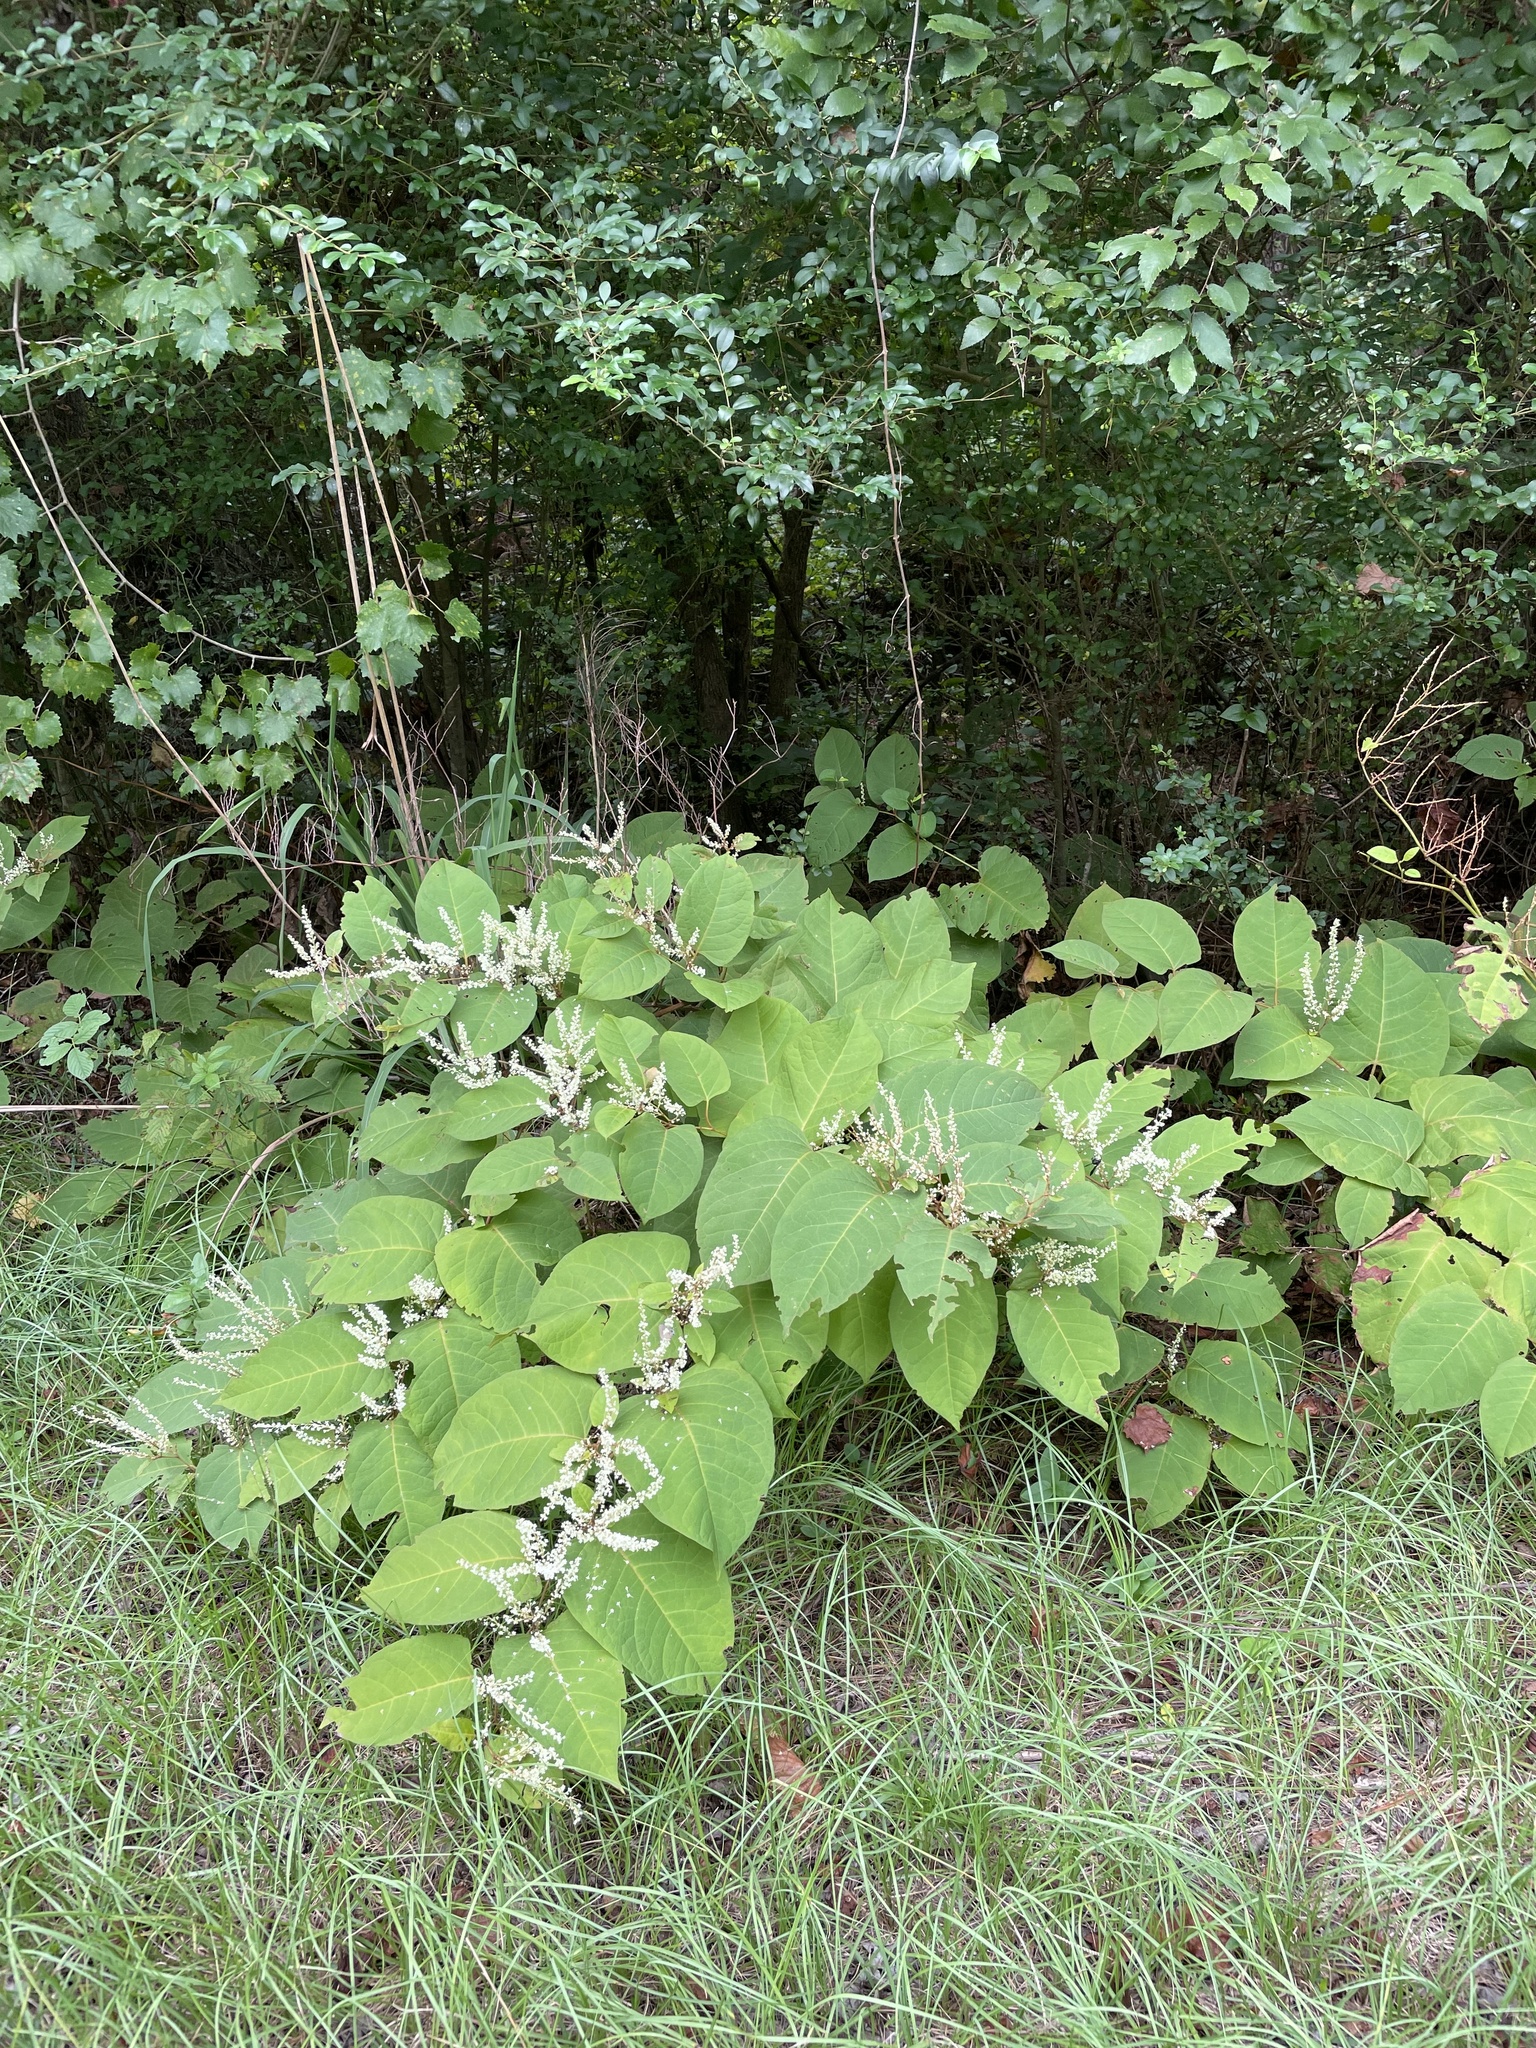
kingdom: Plantae
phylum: Tracheophyta
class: Magnoliopsida
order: Caryophyllales
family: Polygonaceae
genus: Reynoutria
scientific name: Reynoutria japonica
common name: Japanese knotweed
